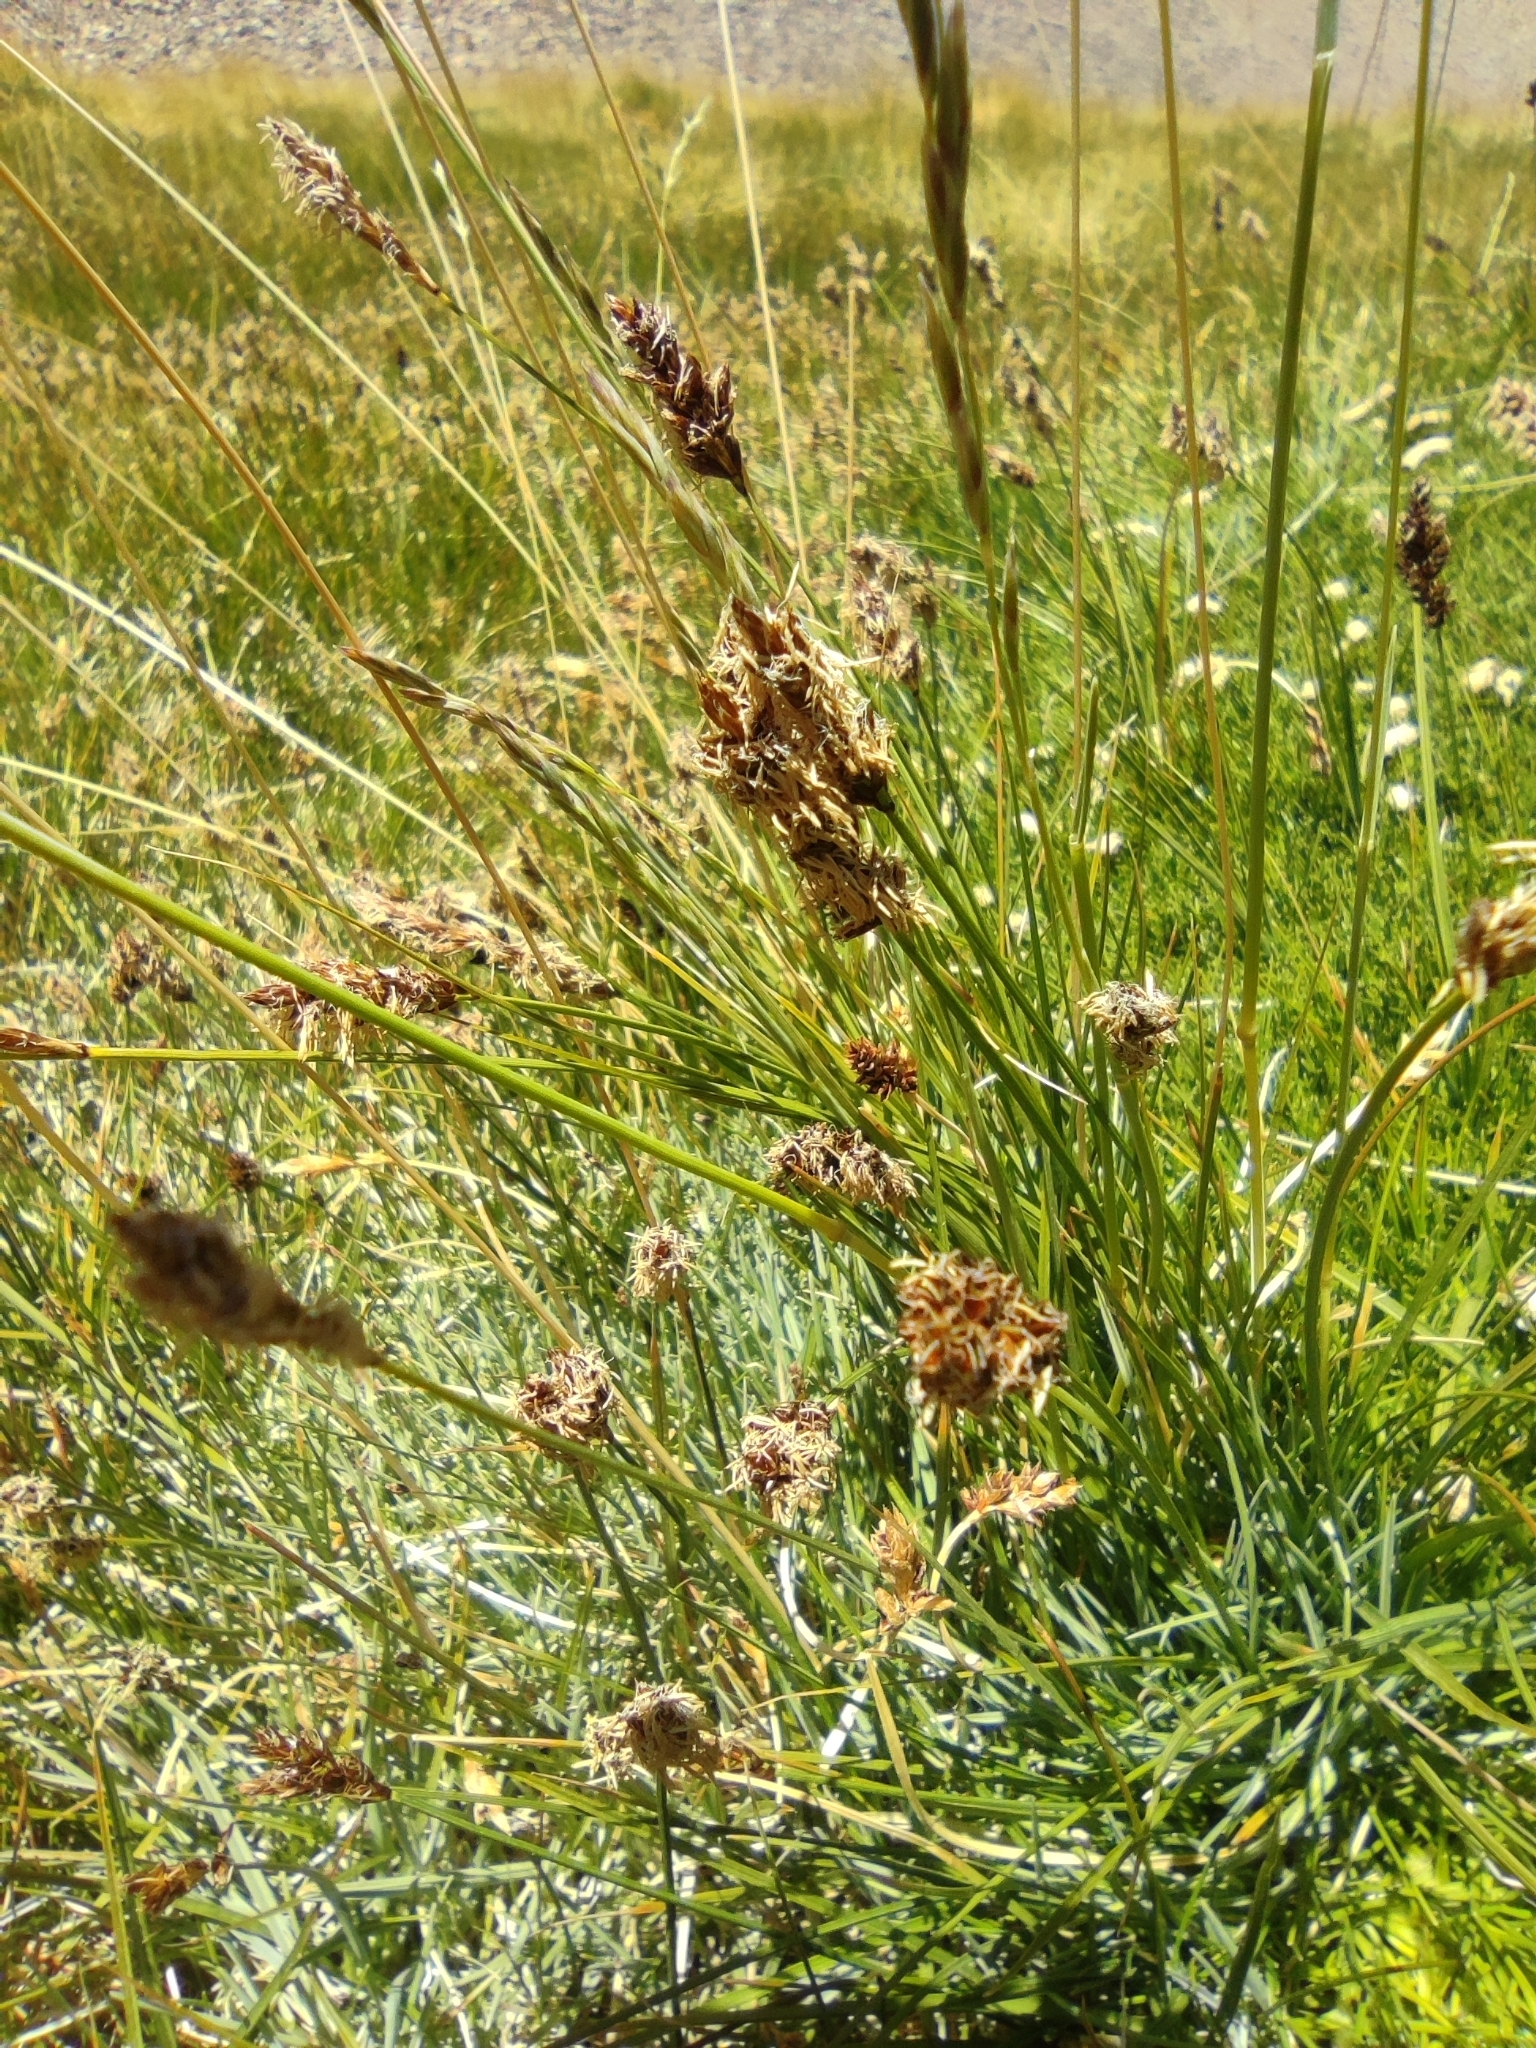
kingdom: Plantae
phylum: Tracheophyta
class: Liliopsida
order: Poales
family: Cyperaceae
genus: Carex
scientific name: Carex gayana
